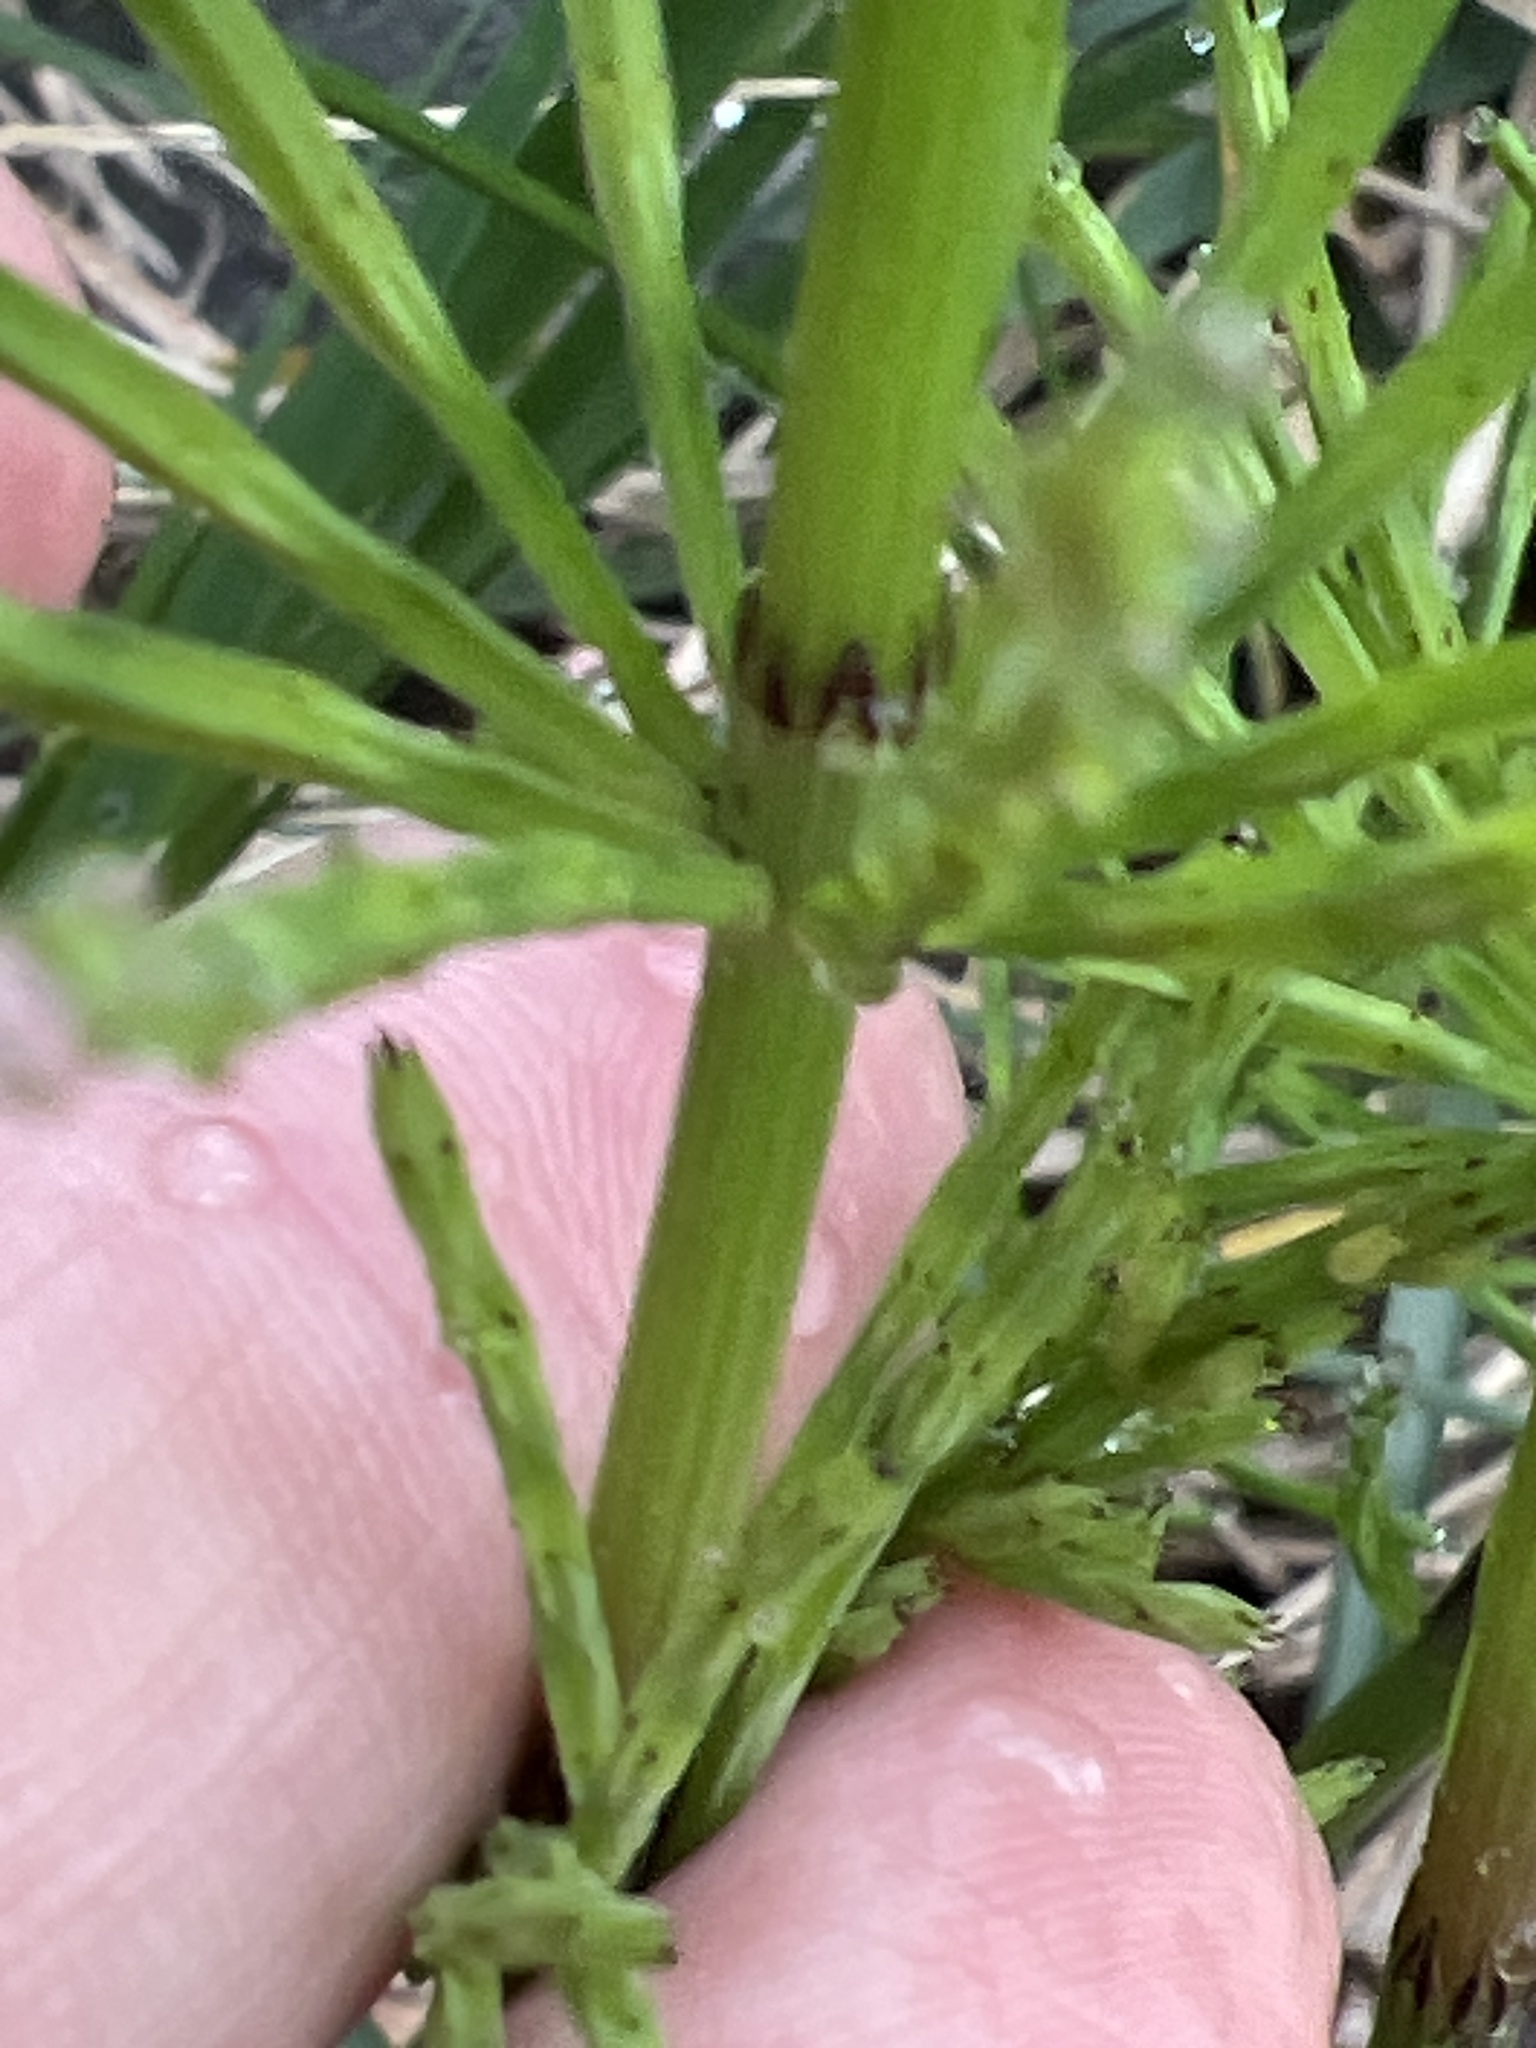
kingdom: Plantae
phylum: Tracheophyta
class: Polypodiopsida
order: Equisetales
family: Equisetaceae
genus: Equisetum
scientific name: Equisetum arvense
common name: Field horsetail
